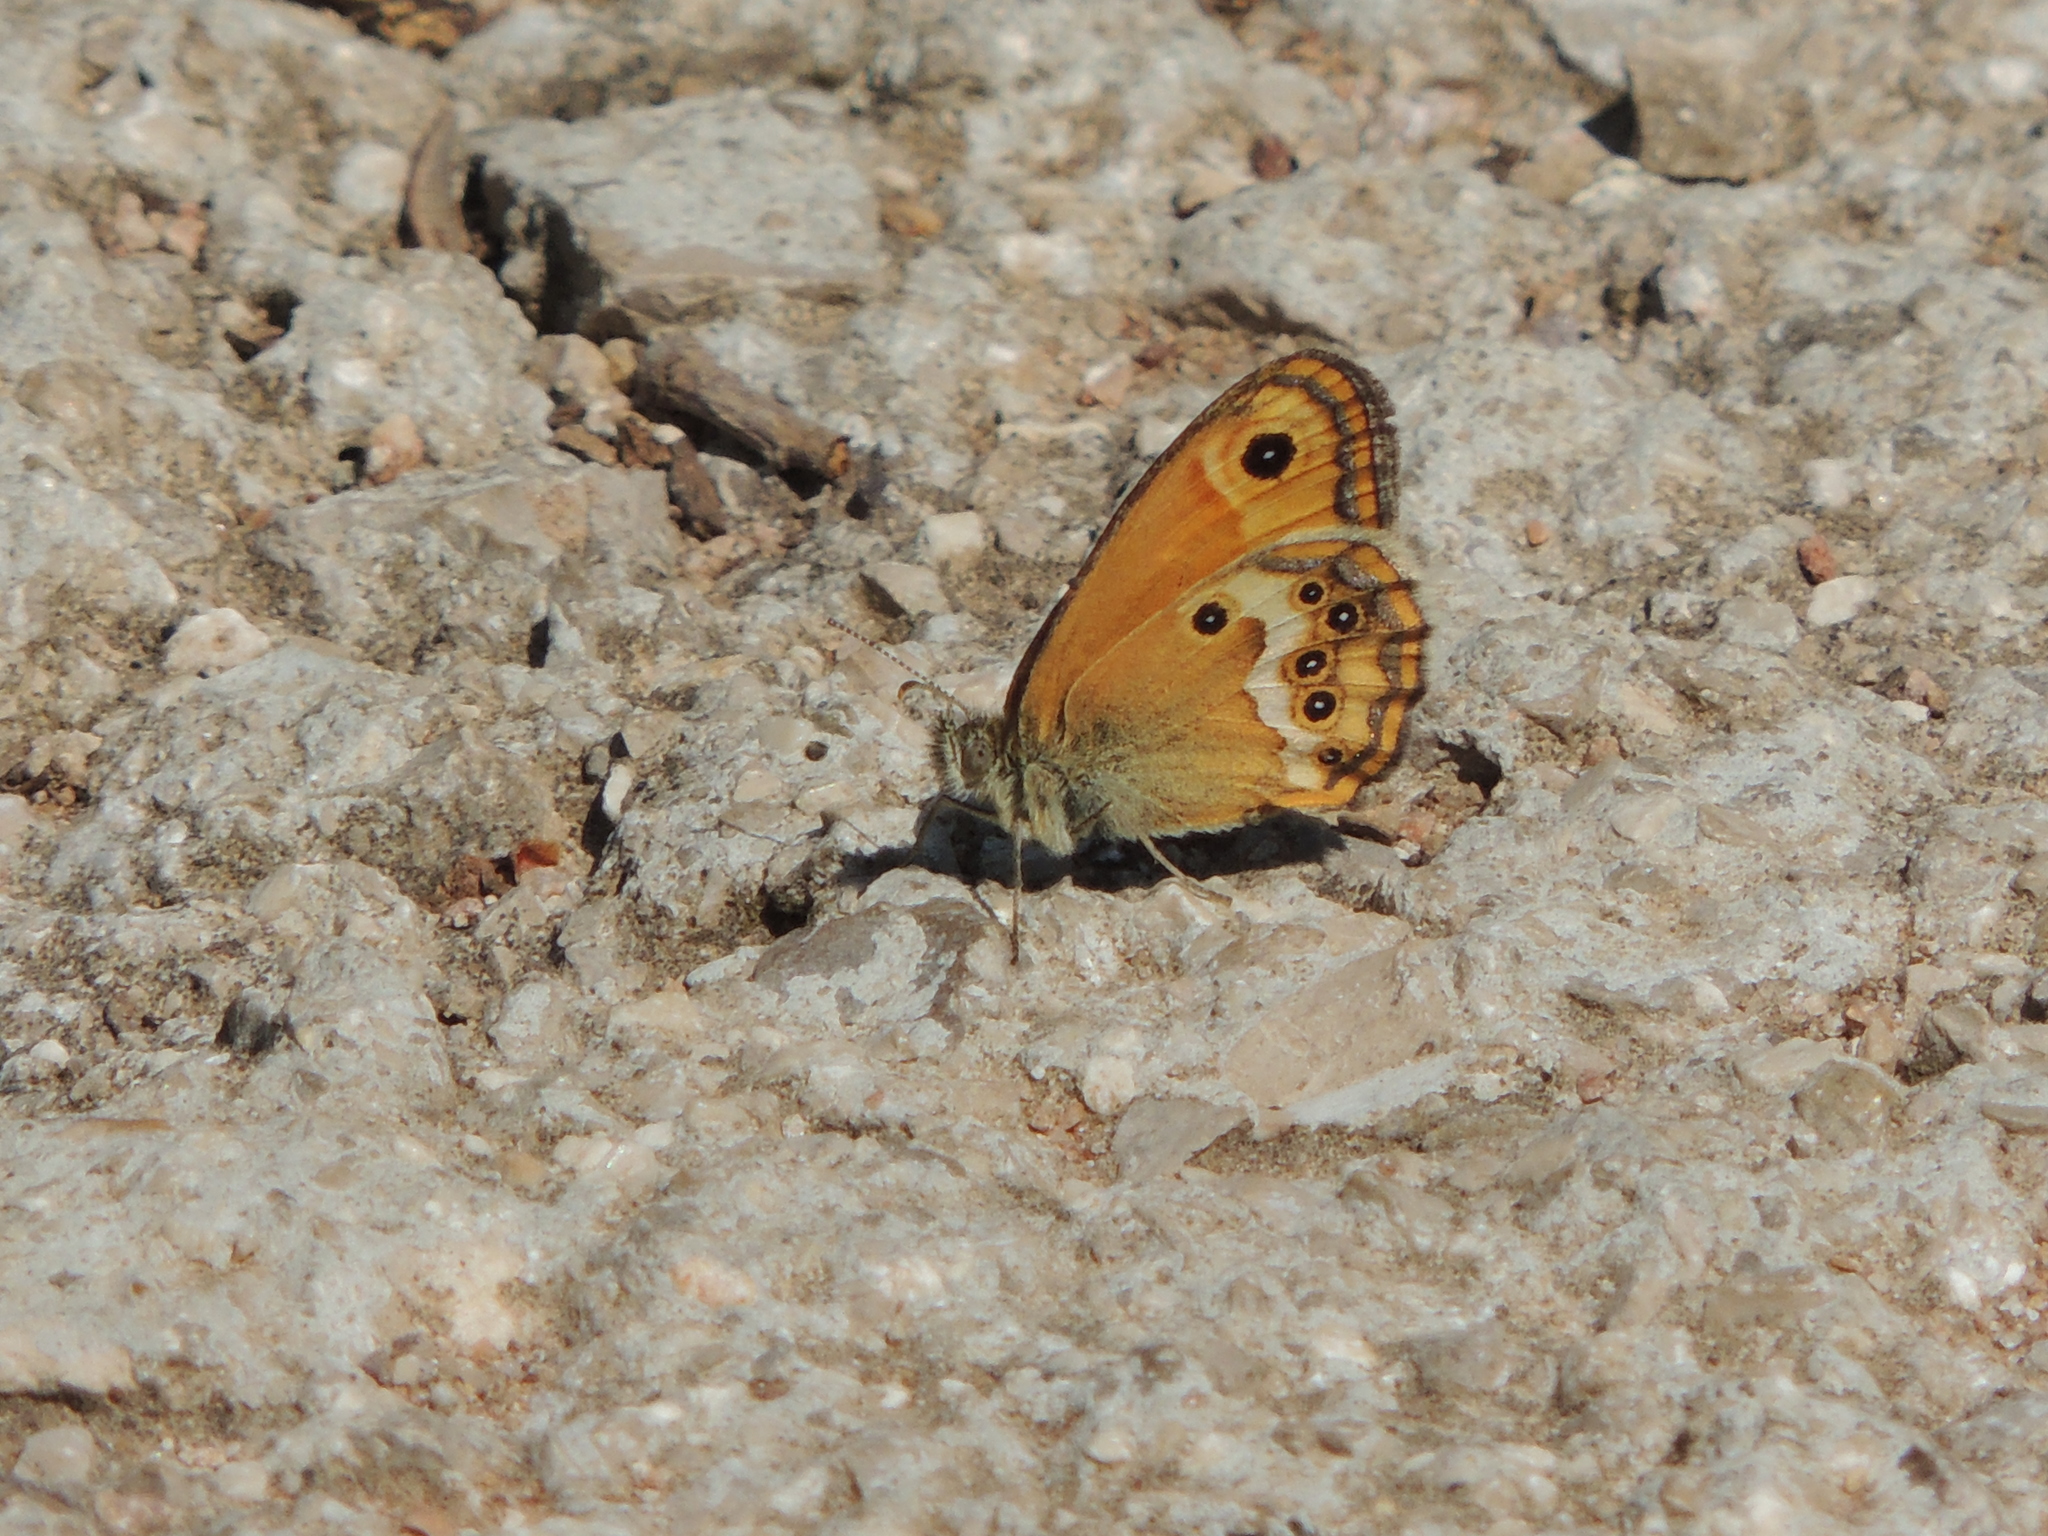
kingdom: Animalia
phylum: Arthropoda
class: Insecta
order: Lepidoptera
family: Nymphalidae
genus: Coenonympha
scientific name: Coenonympha dorus
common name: Dusky heath
